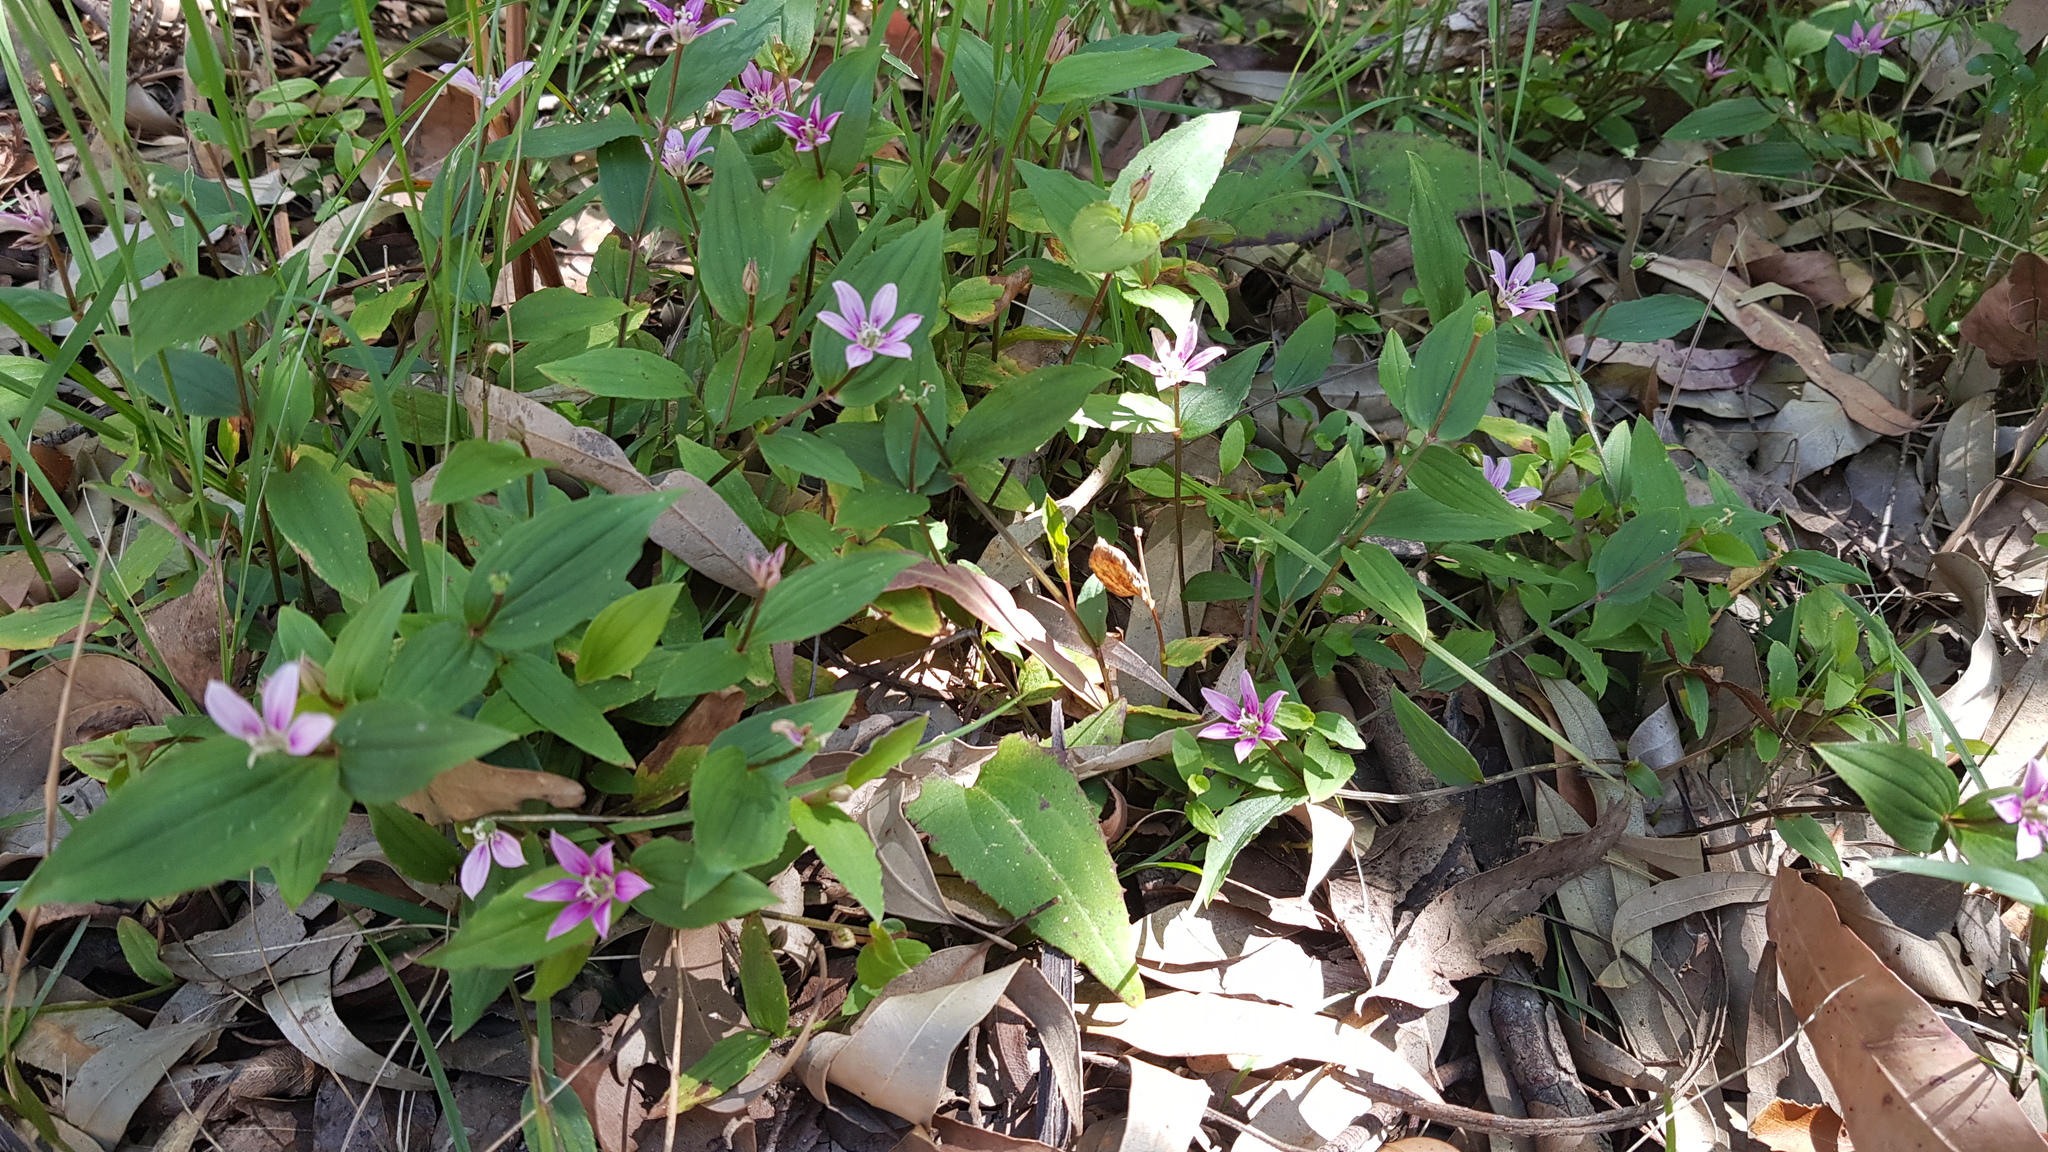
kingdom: Plantae
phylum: Tracheophyta
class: Liliopsida
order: Liliales
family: Colchicaceae
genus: Schelhammera
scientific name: Schelhammera undulata
